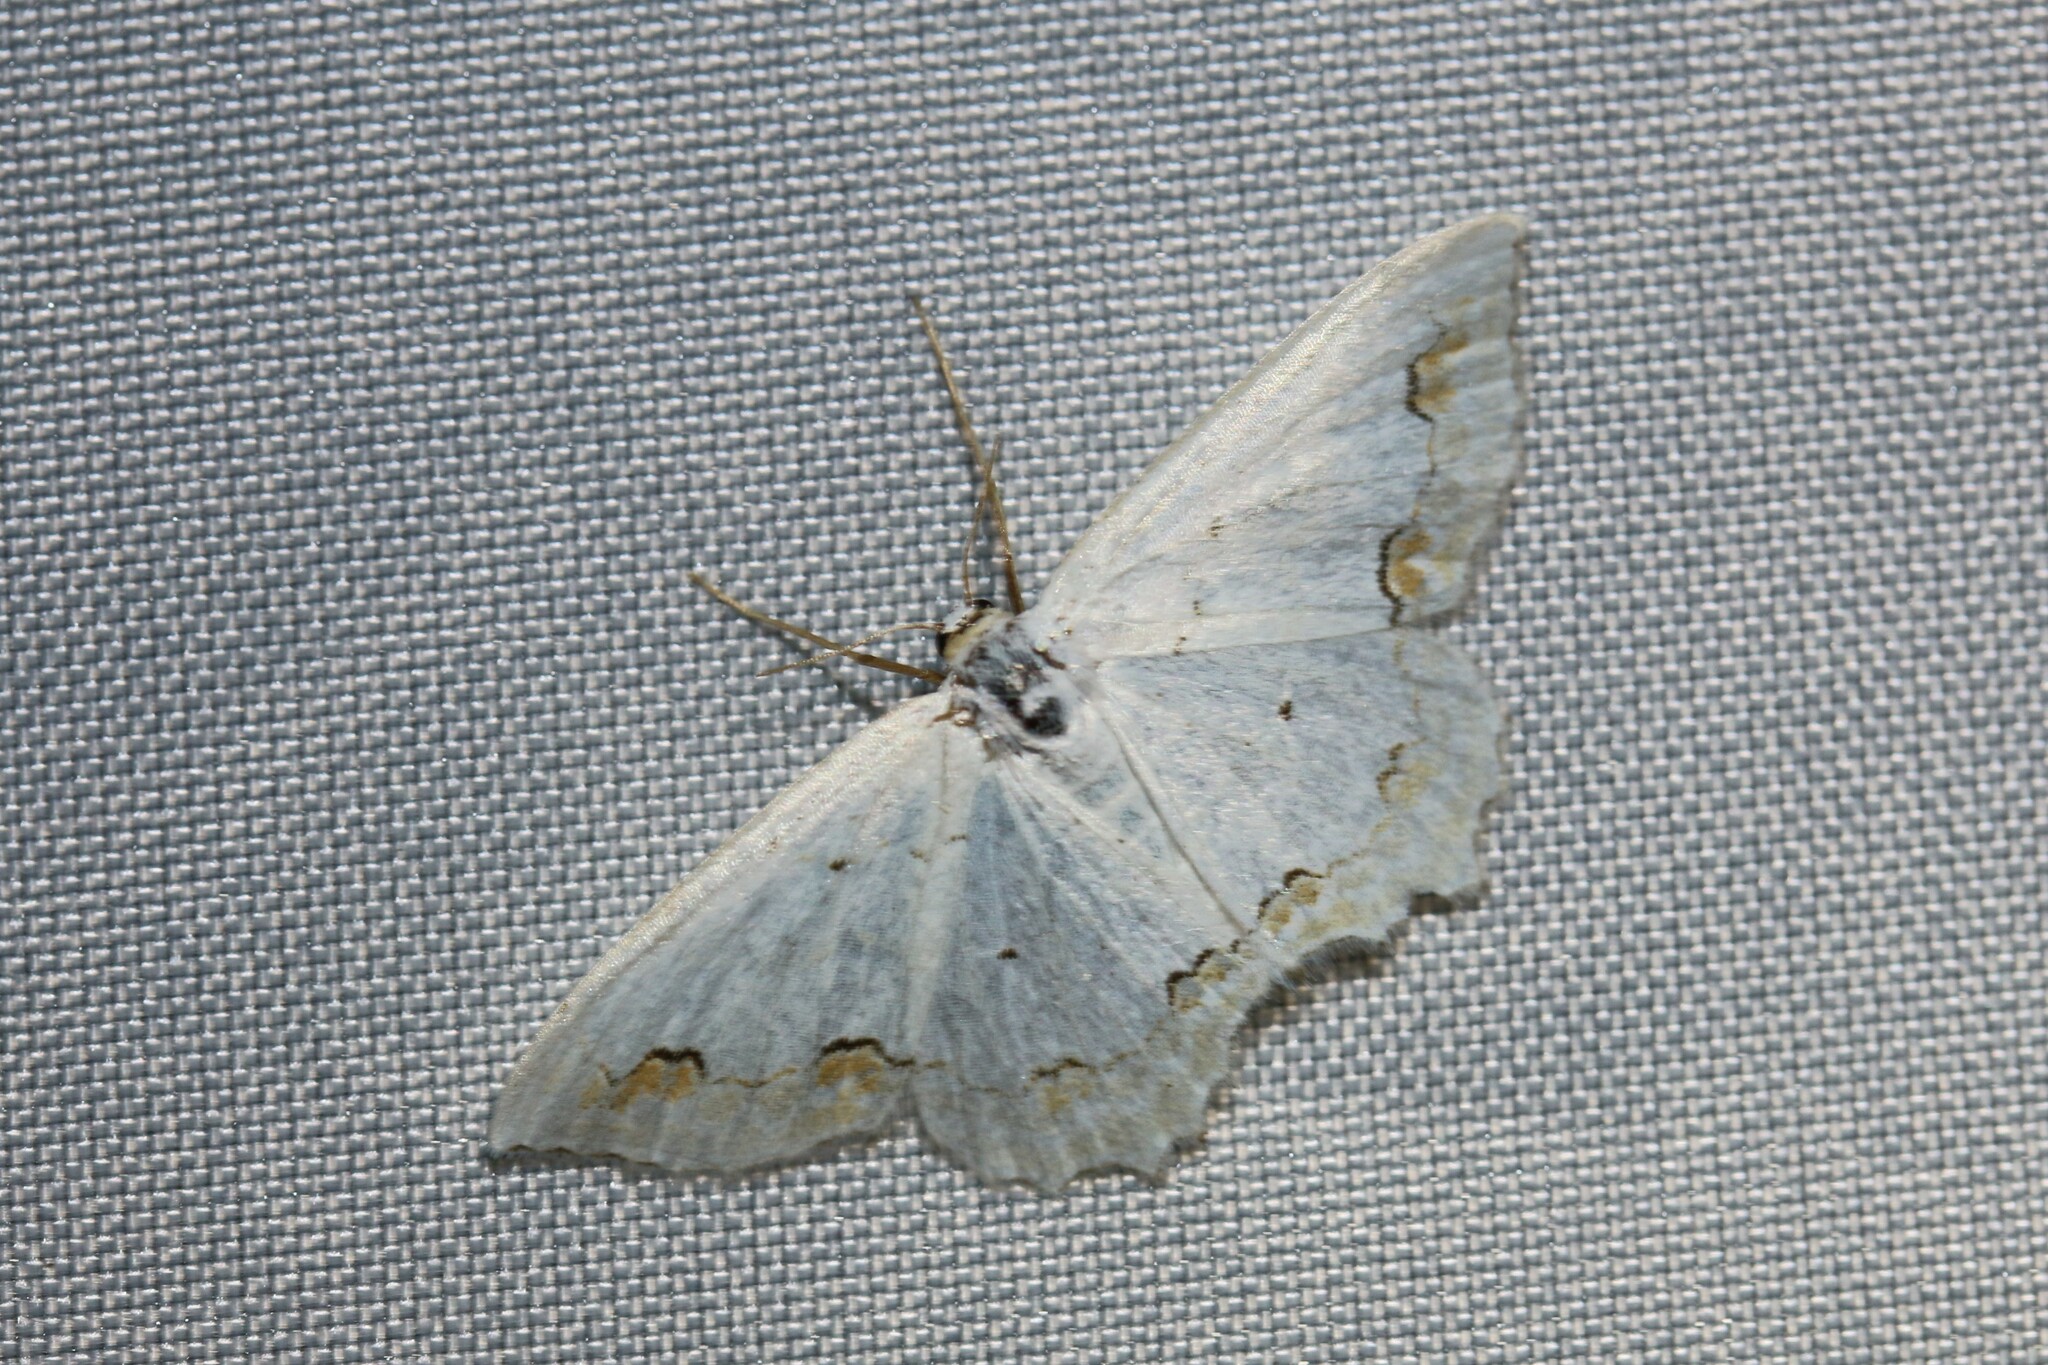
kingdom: Animalia
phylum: Arthropoda
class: Insecta
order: Lepidoptera
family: Geometridae
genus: Scopula
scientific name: Scopula ornata
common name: Lace border
